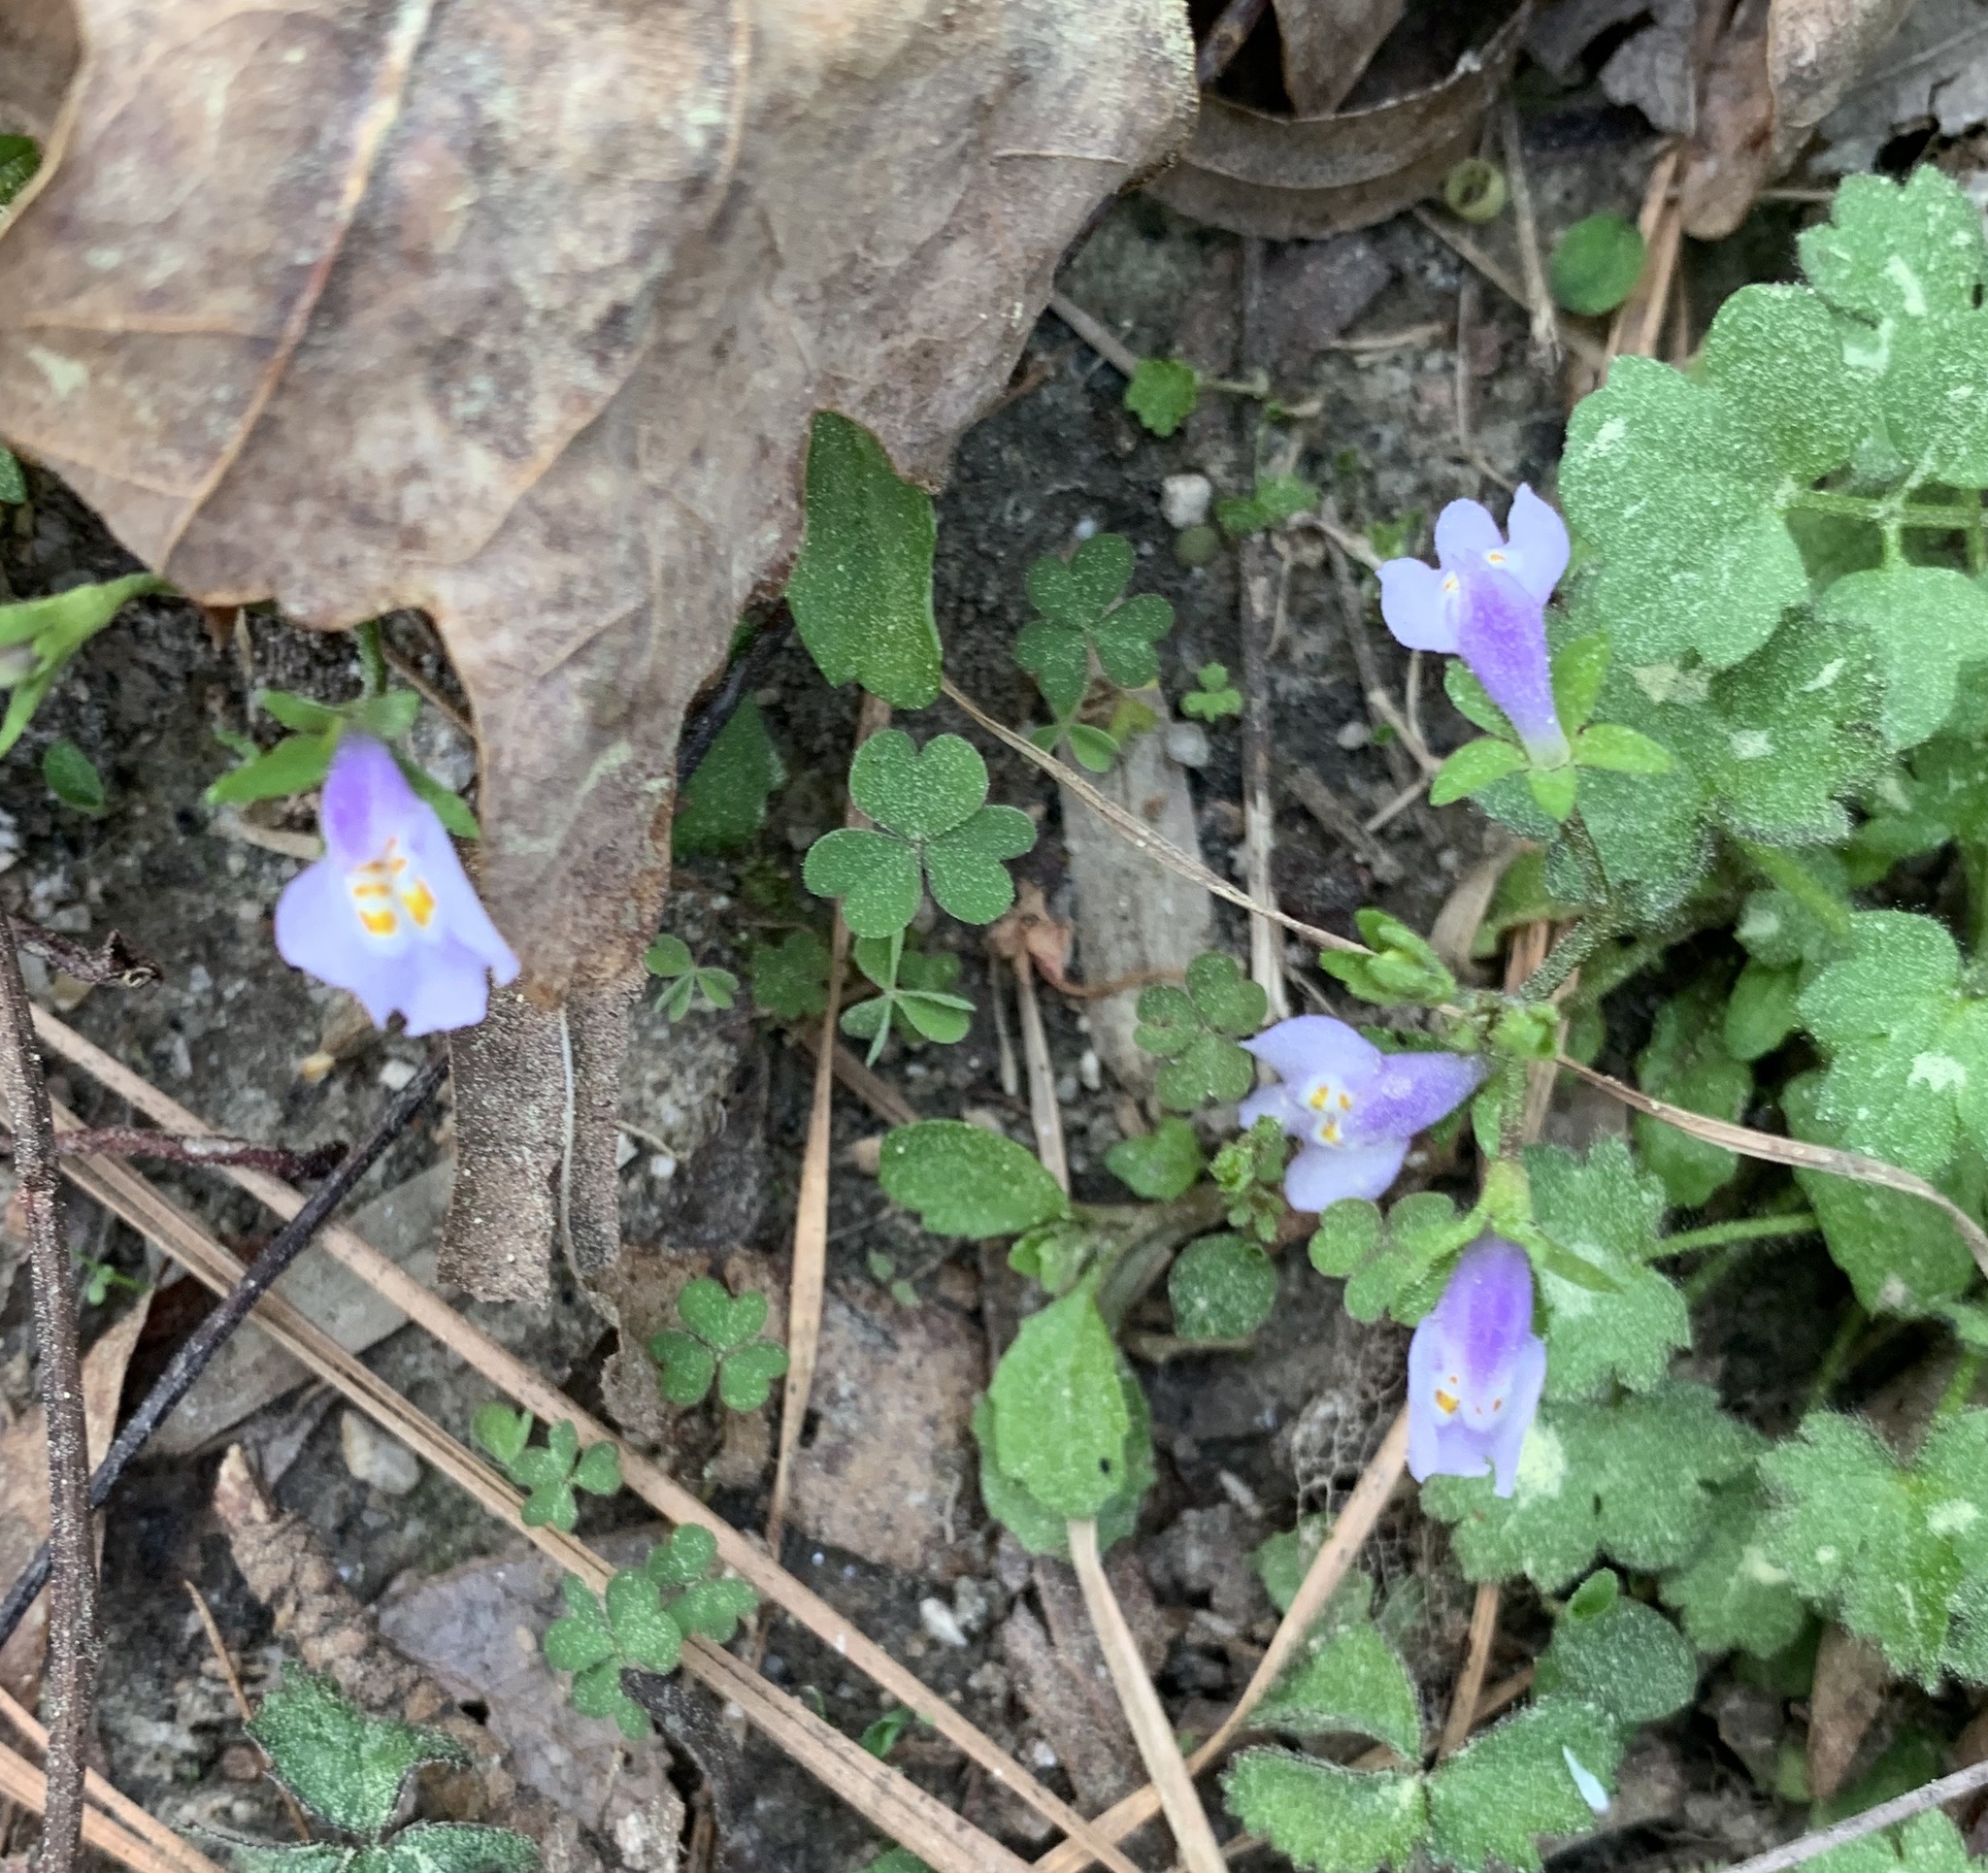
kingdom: Plantae
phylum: Tracheophyta
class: Magnoliopsida
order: Lamiales
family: Mazaceae
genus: Mazus
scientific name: Mazus pumilus
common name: Japanese mazus
